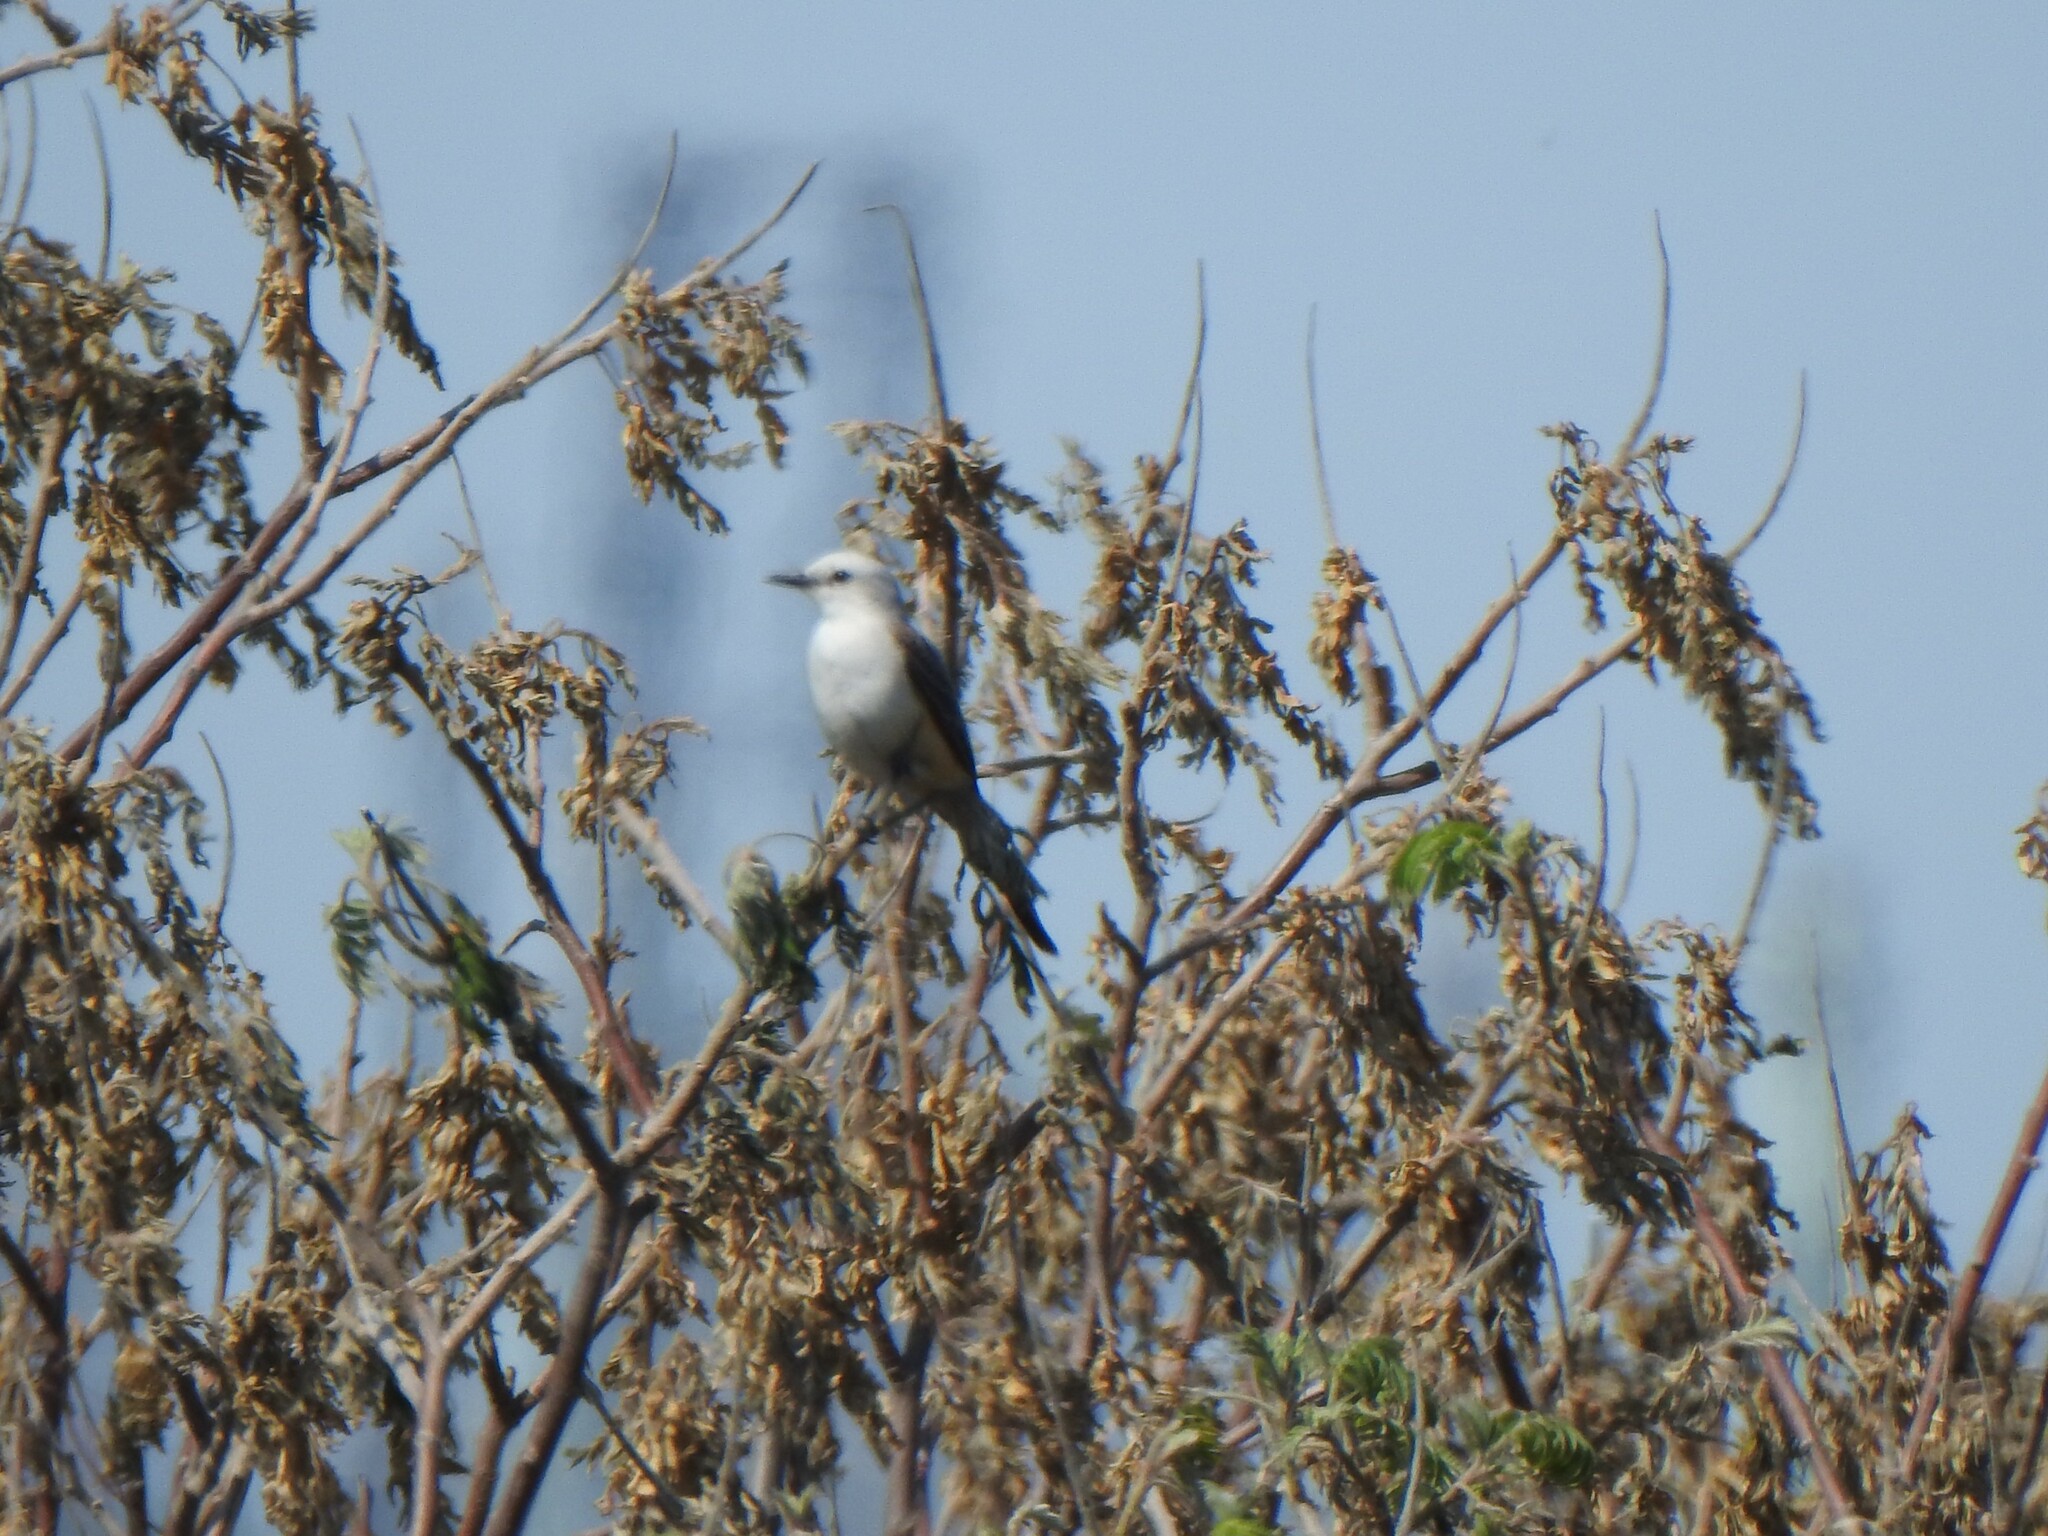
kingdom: Animalia
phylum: Chordata
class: Aves
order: Passeriformes
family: Tyrannidae
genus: Tyrannus
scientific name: Tyrannus forficatus
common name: Scissor-tailed flycatcher
